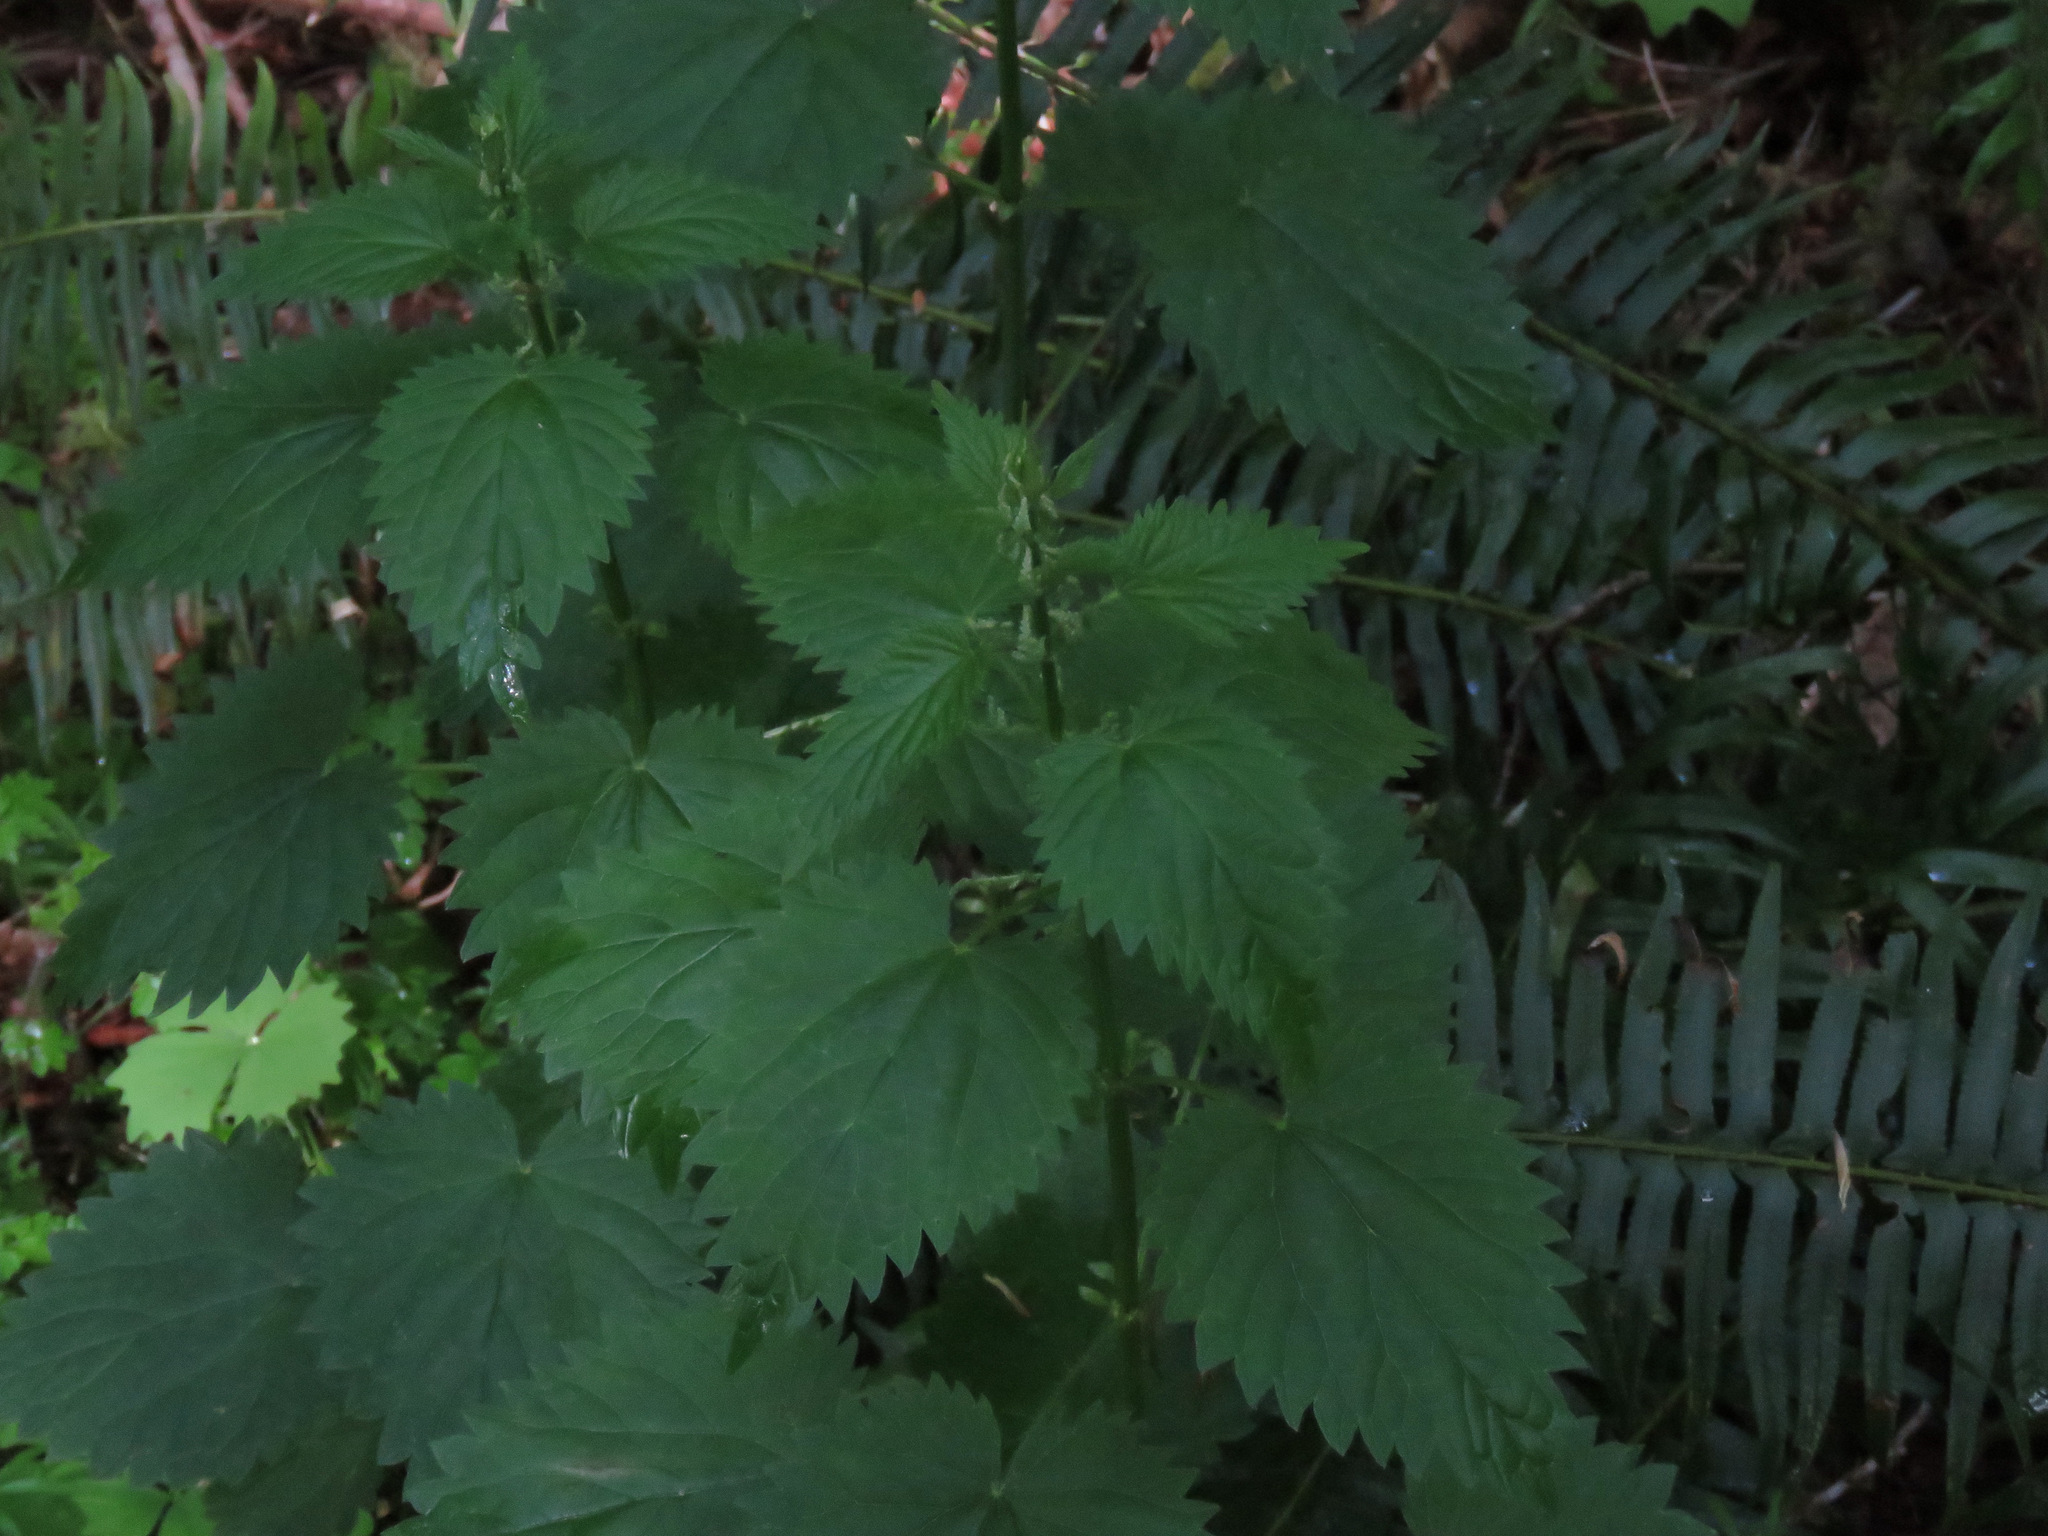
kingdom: Plantae
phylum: Tracheophyta
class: Magnoliopsida
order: Rosales
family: Urticaceae
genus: Urtica
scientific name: Urtica dioica
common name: Common nettle
